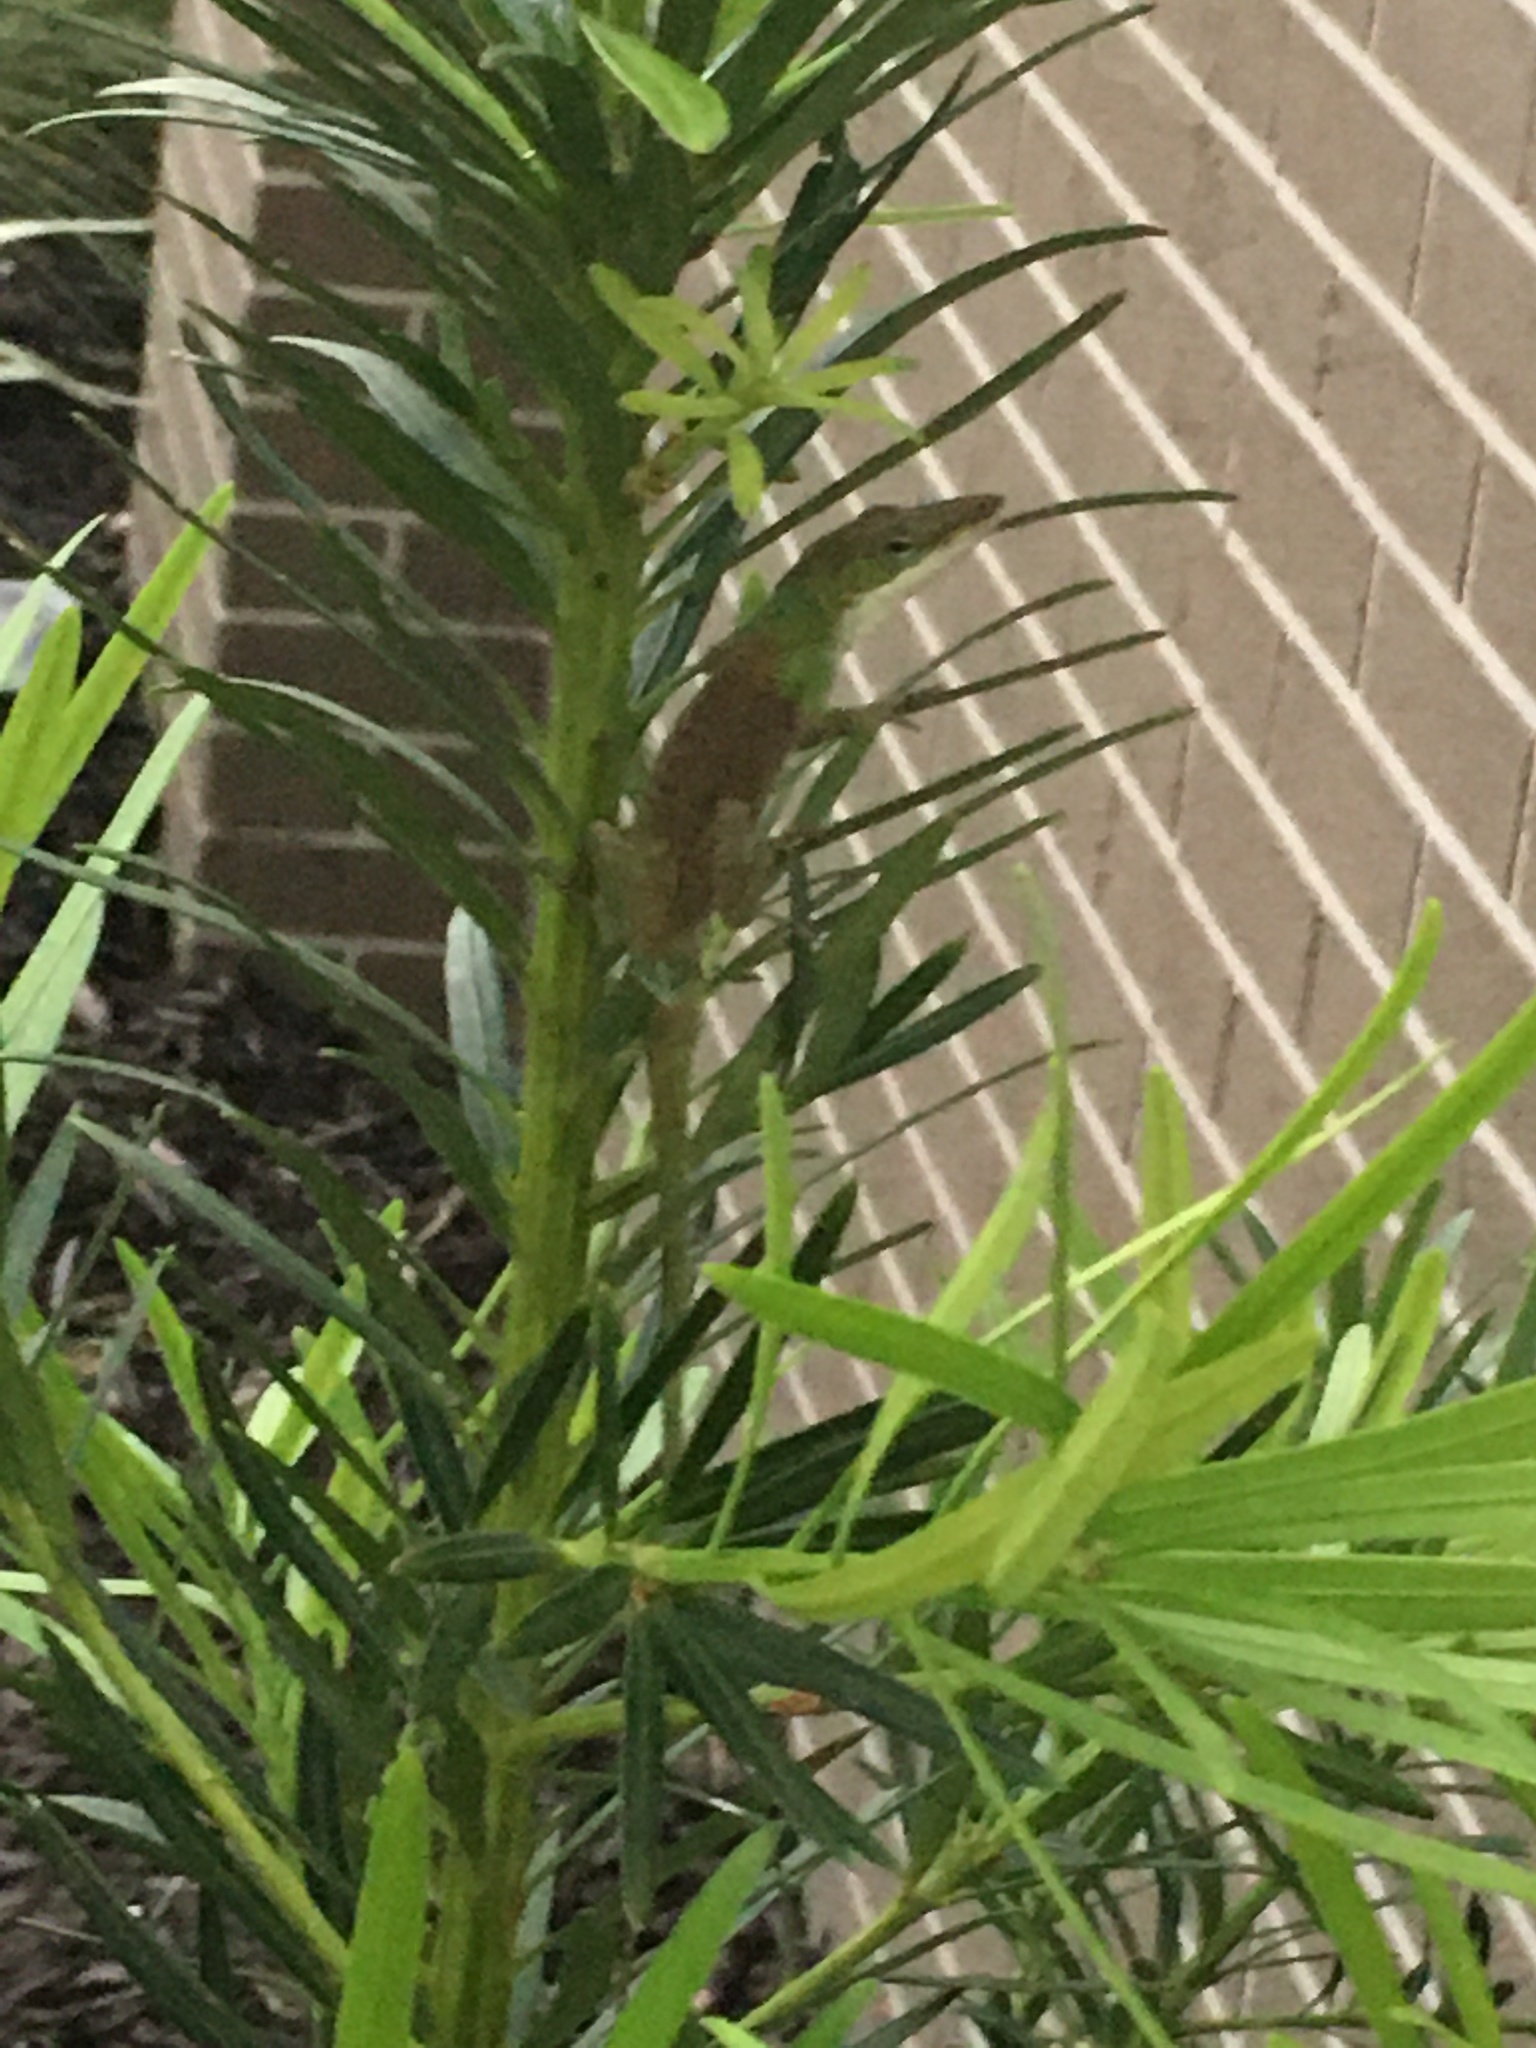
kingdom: Animalia
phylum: Chordata
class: Squamata
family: Dactyloidae
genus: Anolis
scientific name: Anolis carolinensis
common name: Green anole
